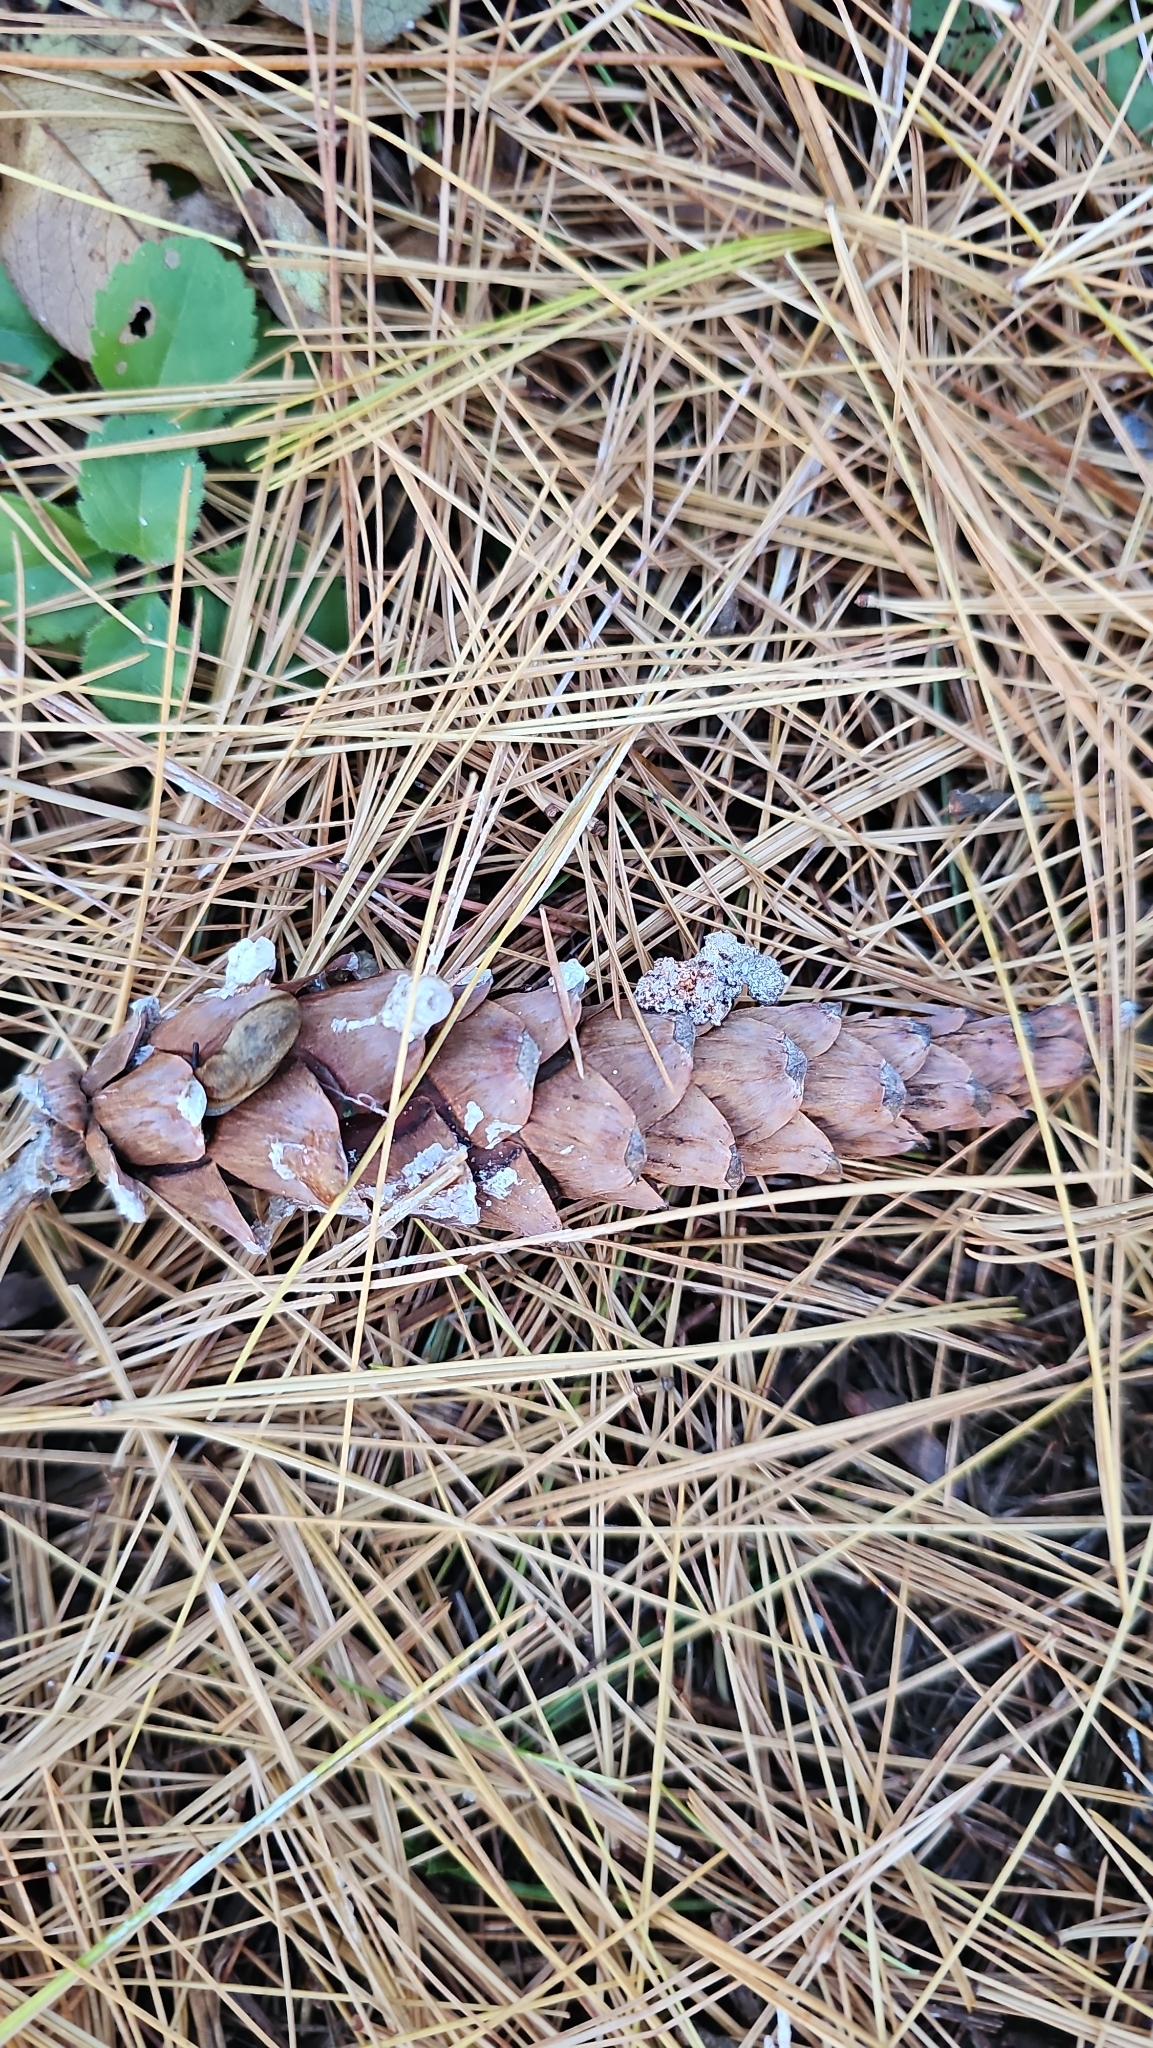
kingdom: Plantae
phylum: Tracheophyta
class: Pinopsida
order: Pinales
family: Pinaceae
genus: Pinus
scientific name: Pinus strobus
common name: Weymouth pine
